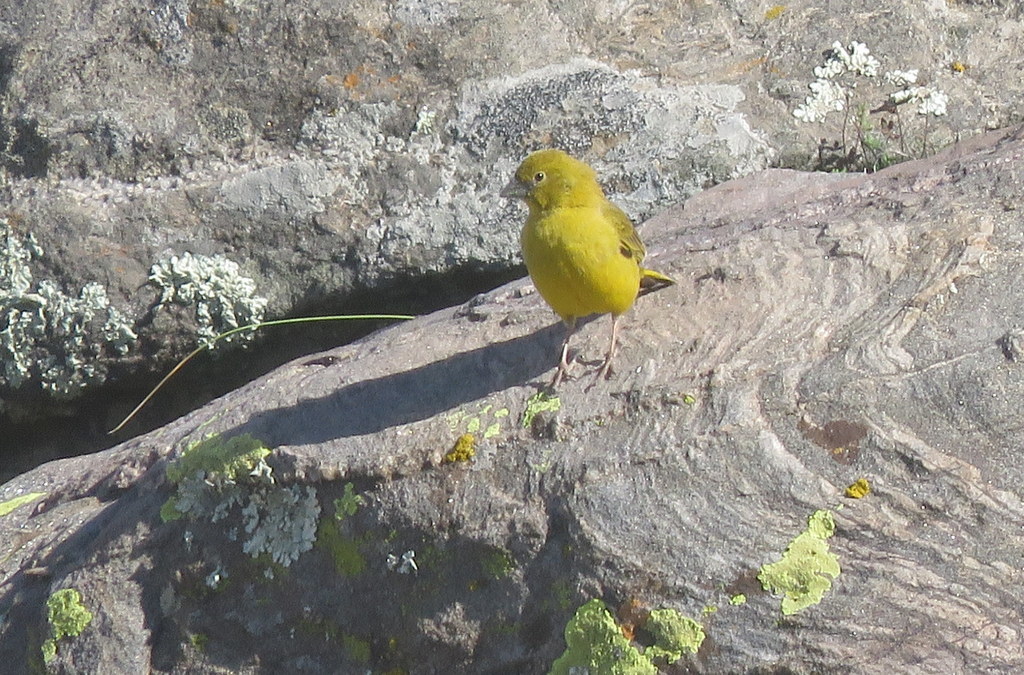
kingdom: Animalia
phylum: Chordata
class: Aves
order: Passeriformes
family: Thraupidae
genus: Sicalis
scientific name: Sicalis olivascens
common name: Greenish yellow finch
